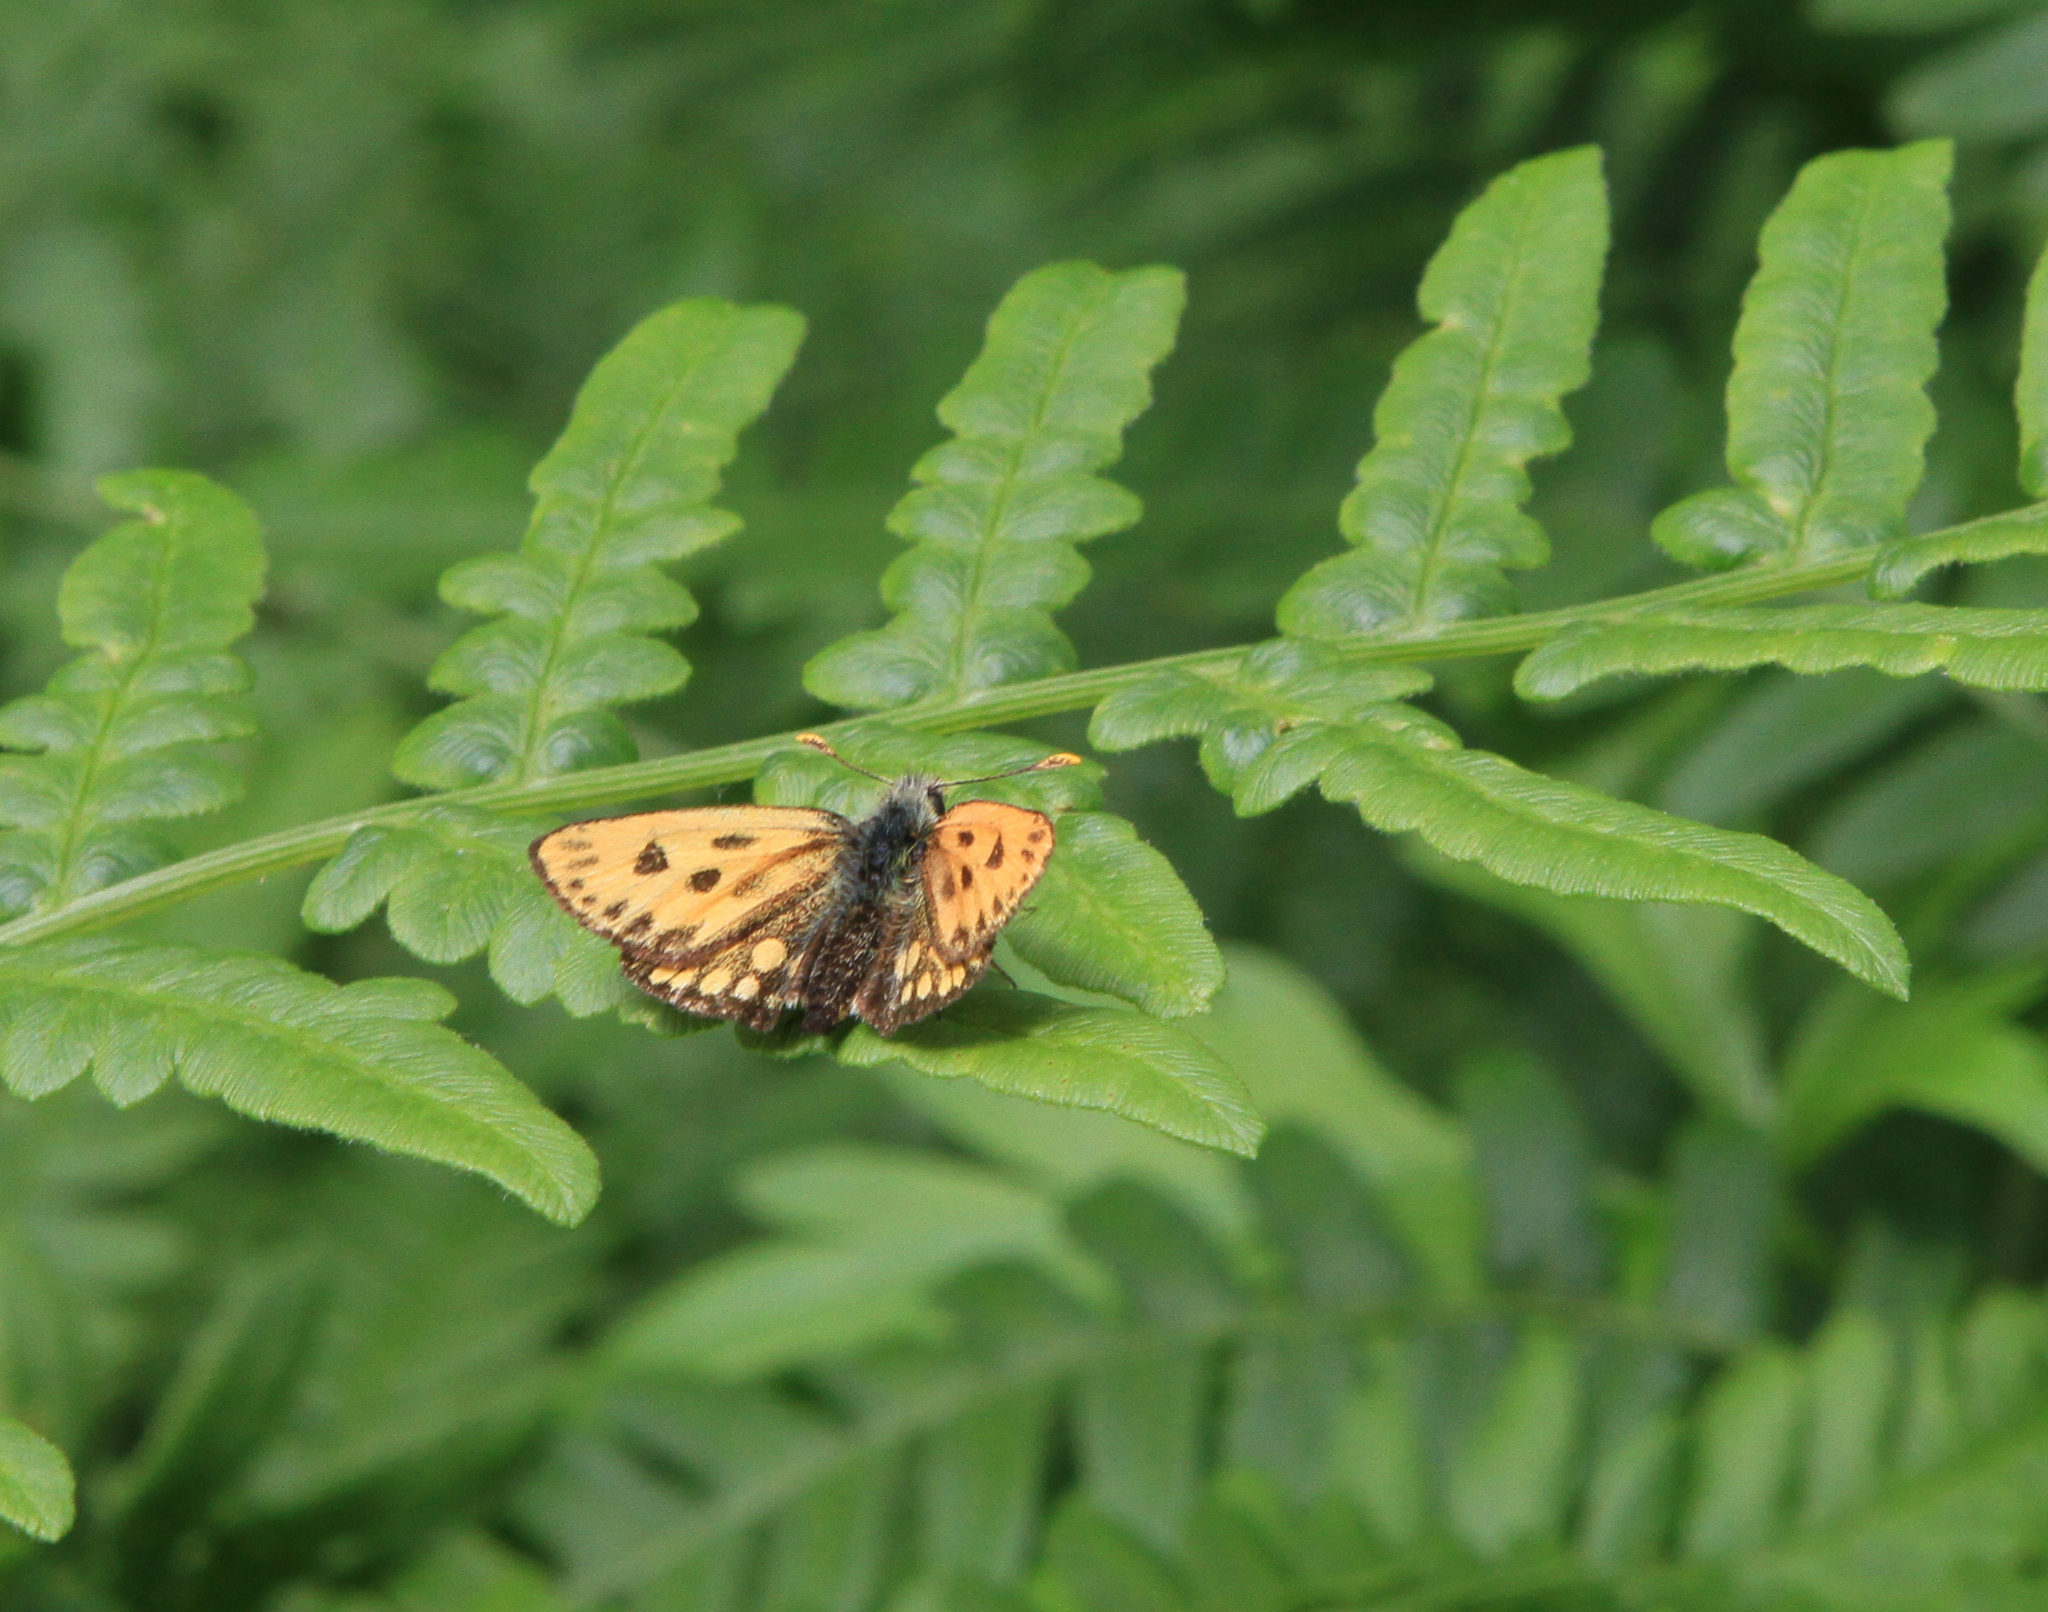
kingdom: Animalia
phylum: Arthropoda
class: Insecta
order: Lepidoptera
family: Hesperiidae
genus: Carterocephalus
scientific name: Carterocephalus silvicola
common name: Northern chequered skipper
